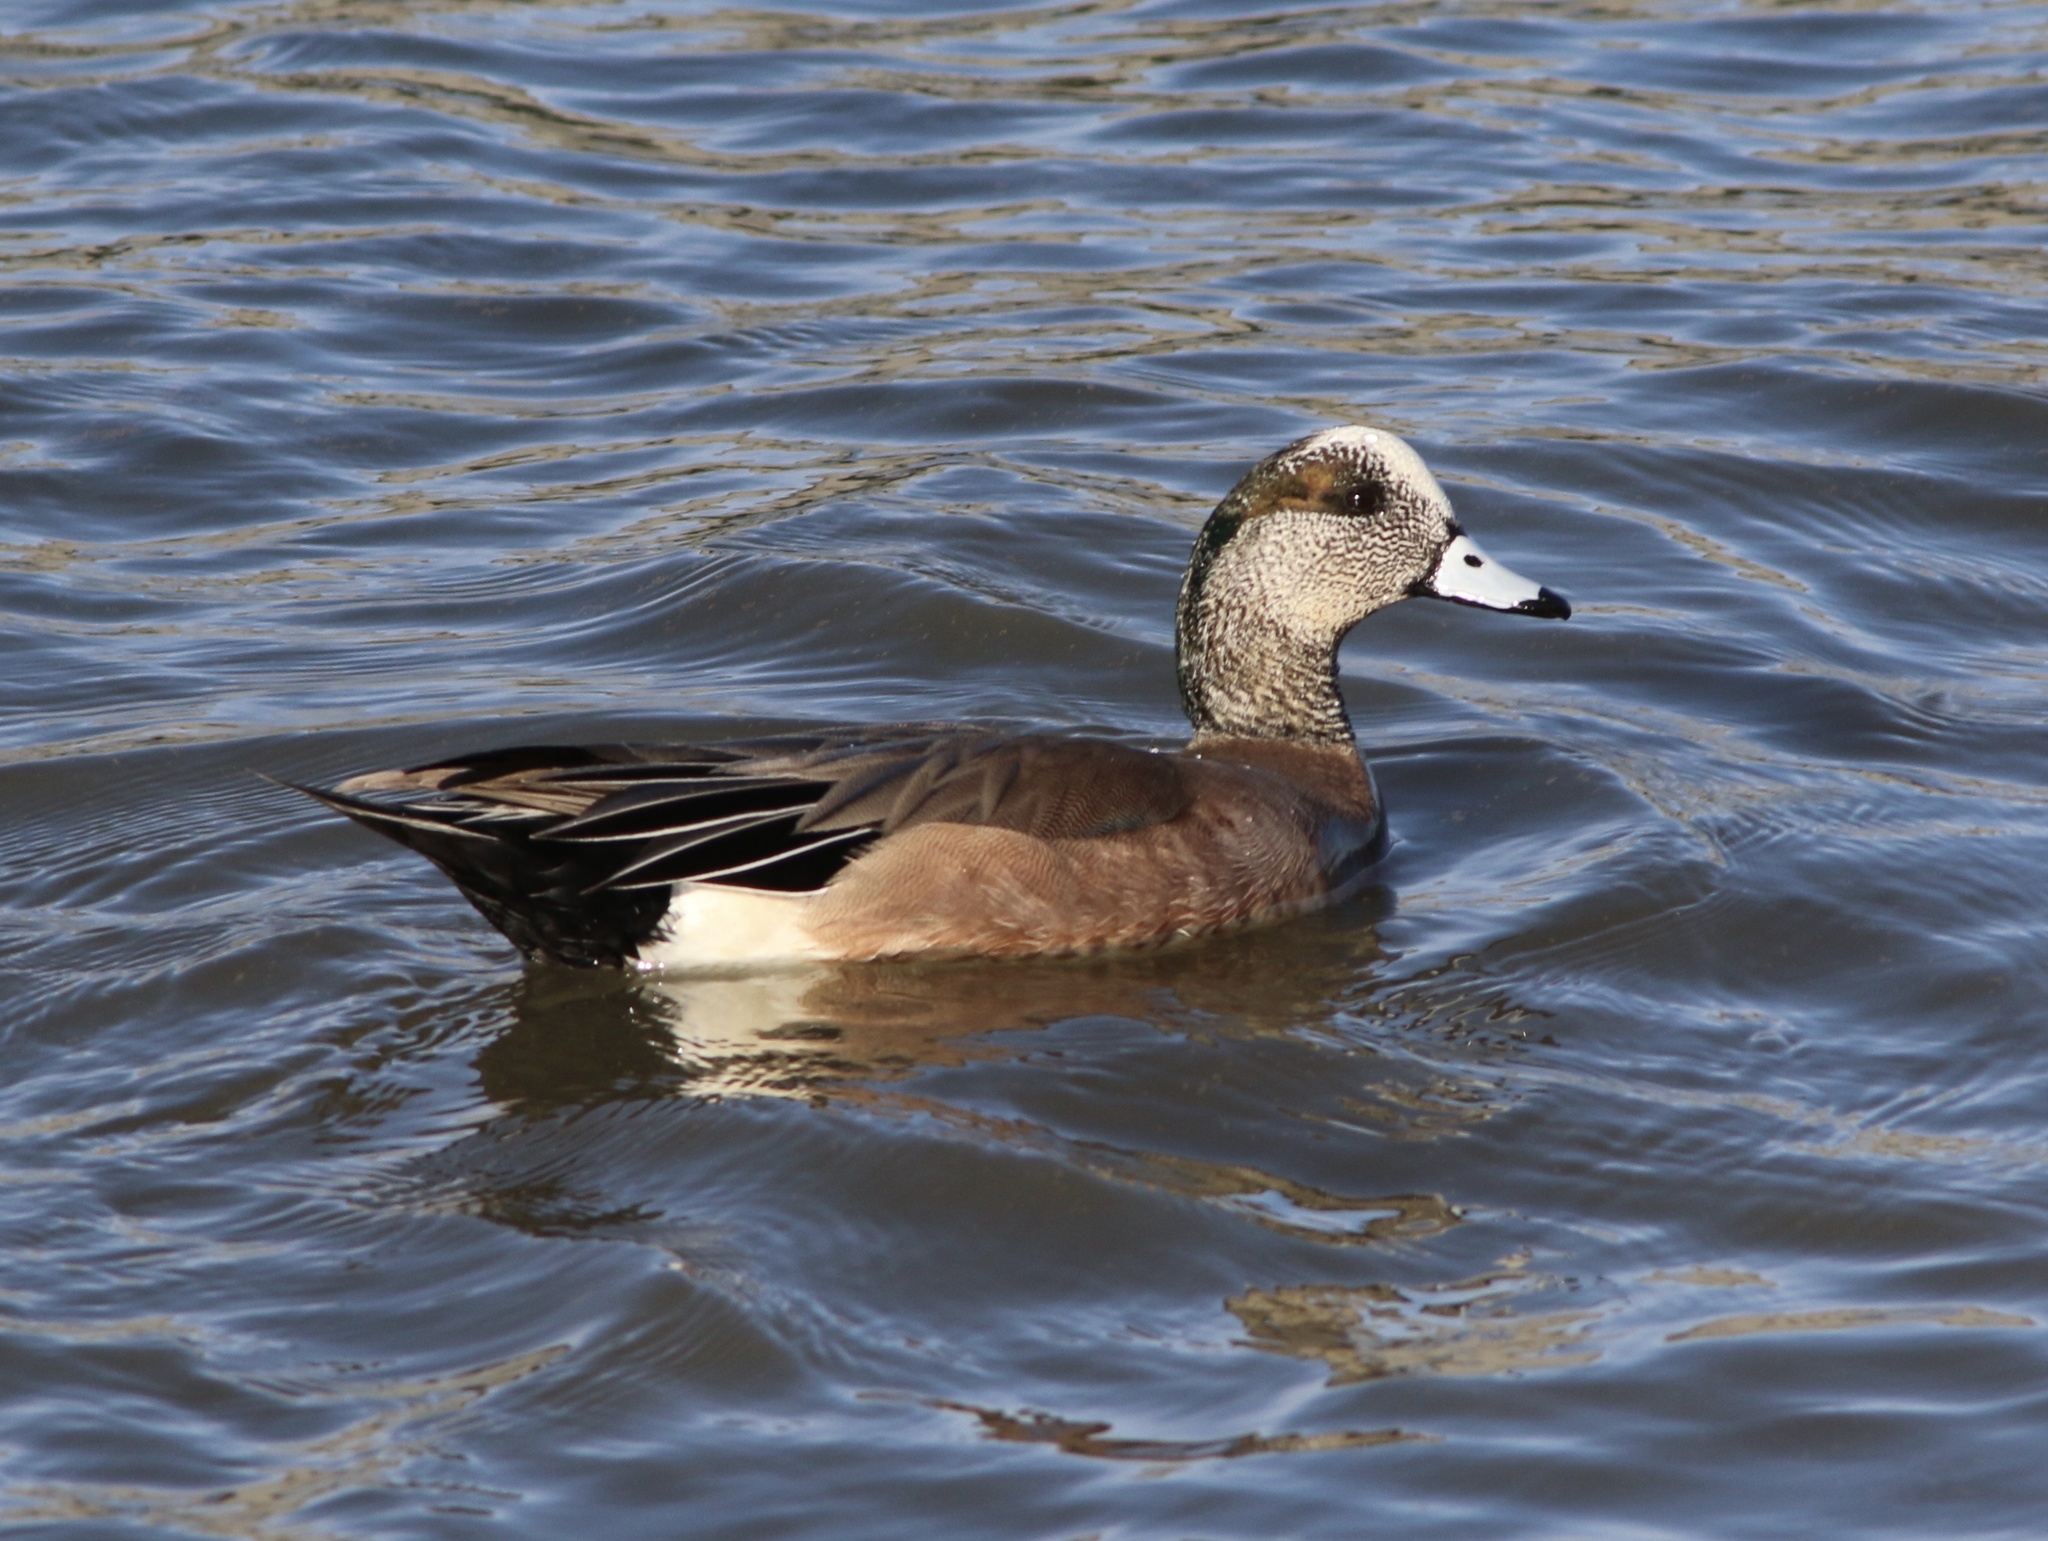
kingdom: Animalia
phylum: Chordata
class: Aves
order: Anseriformes
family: Anatidae
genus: Mareca
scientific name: Mareca americana
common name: American wigeon
